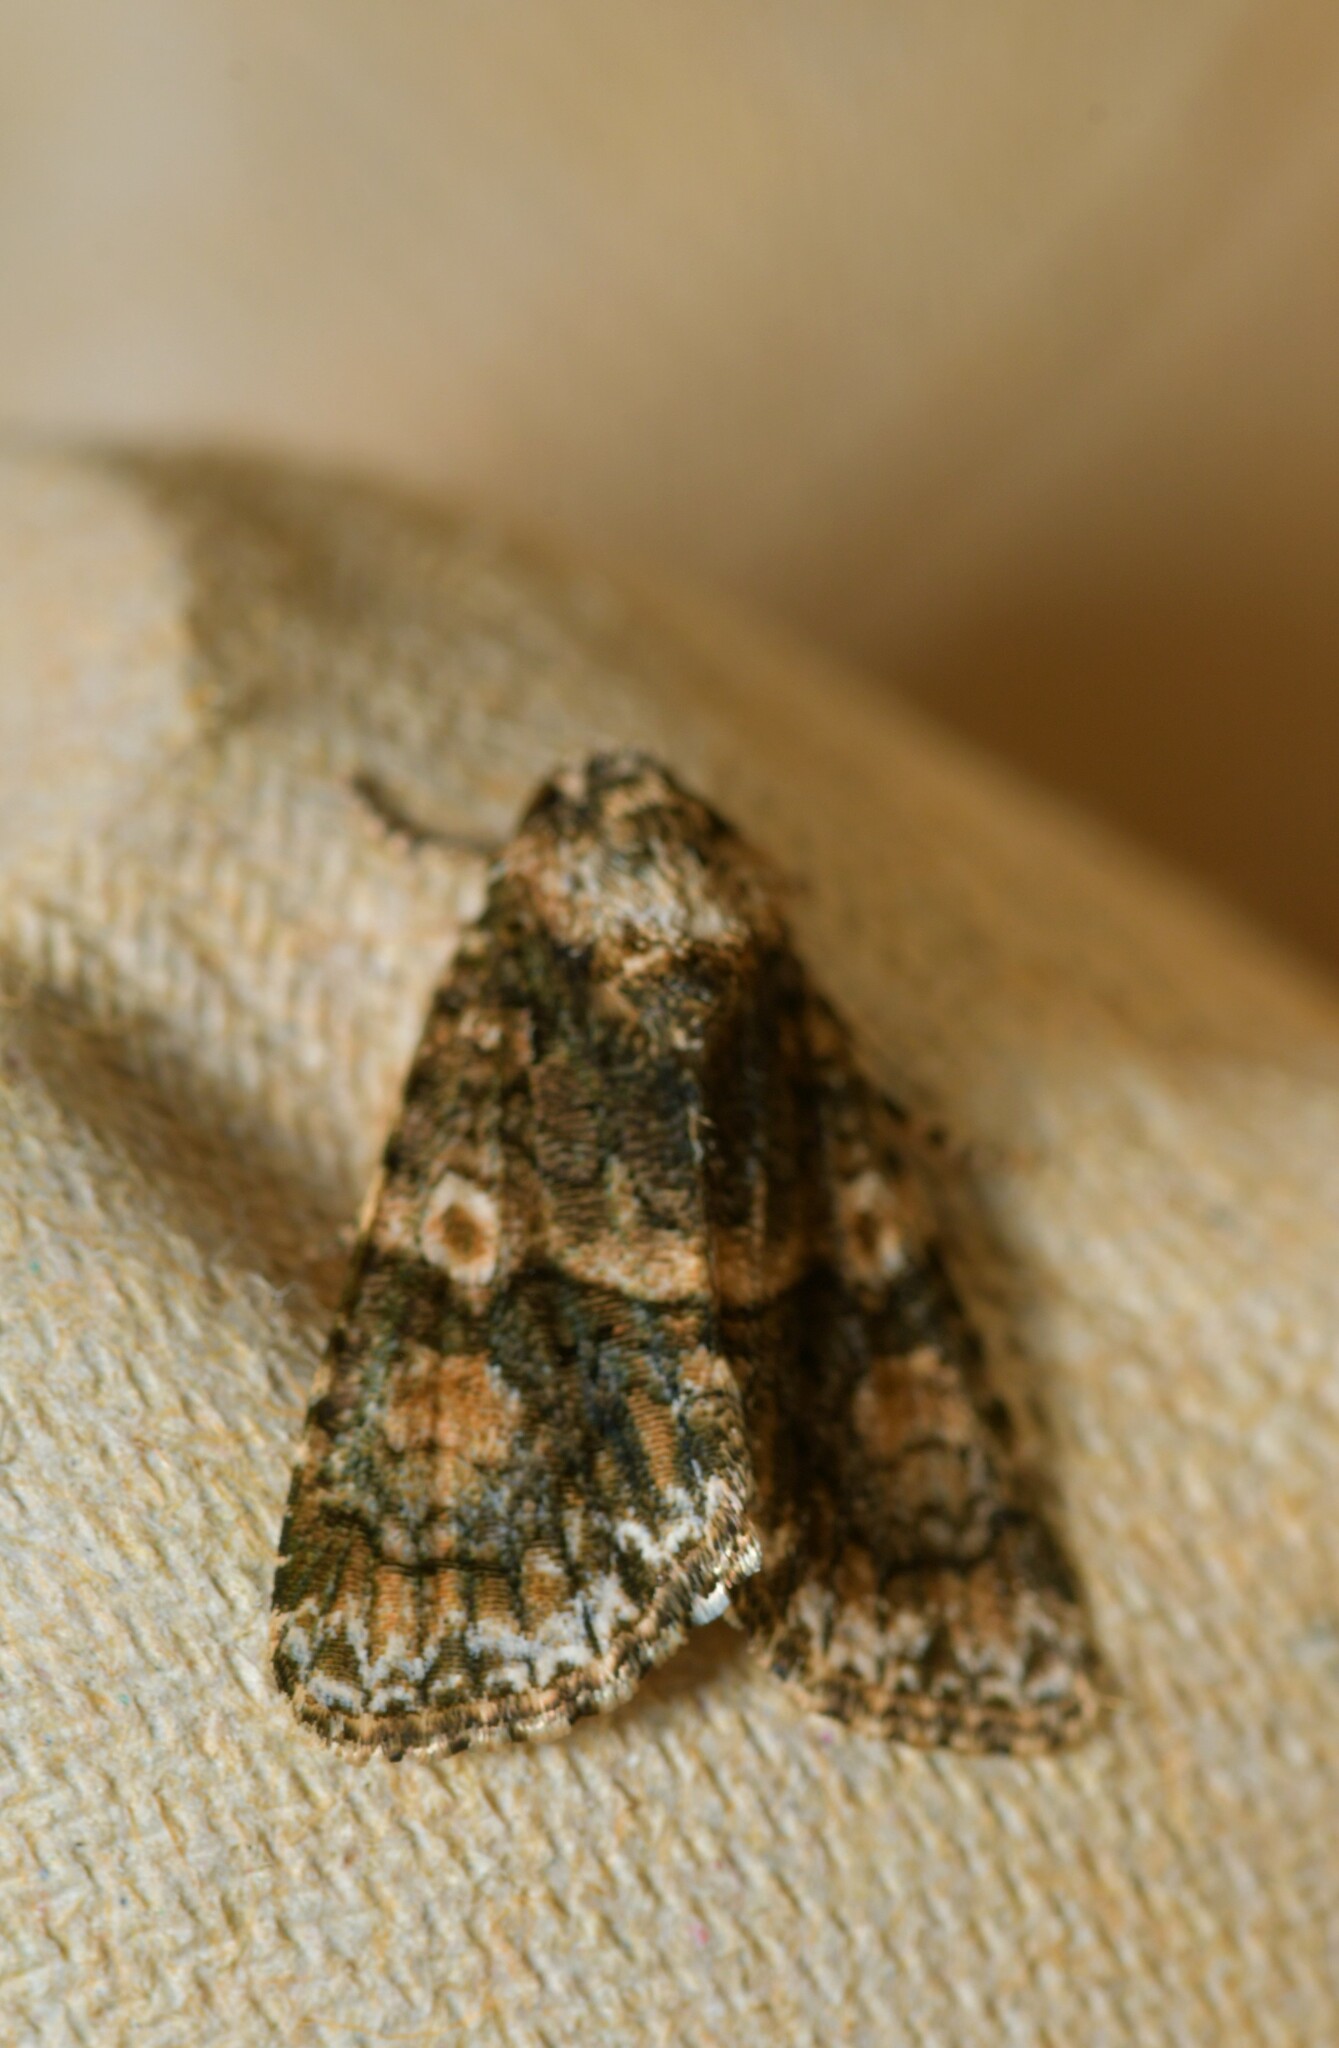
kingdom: Animalia
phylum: Arthropoda
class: Insecta
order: Lepidoptera
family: Noctuidae
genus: Craniophora
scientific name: Craniophora pontica
